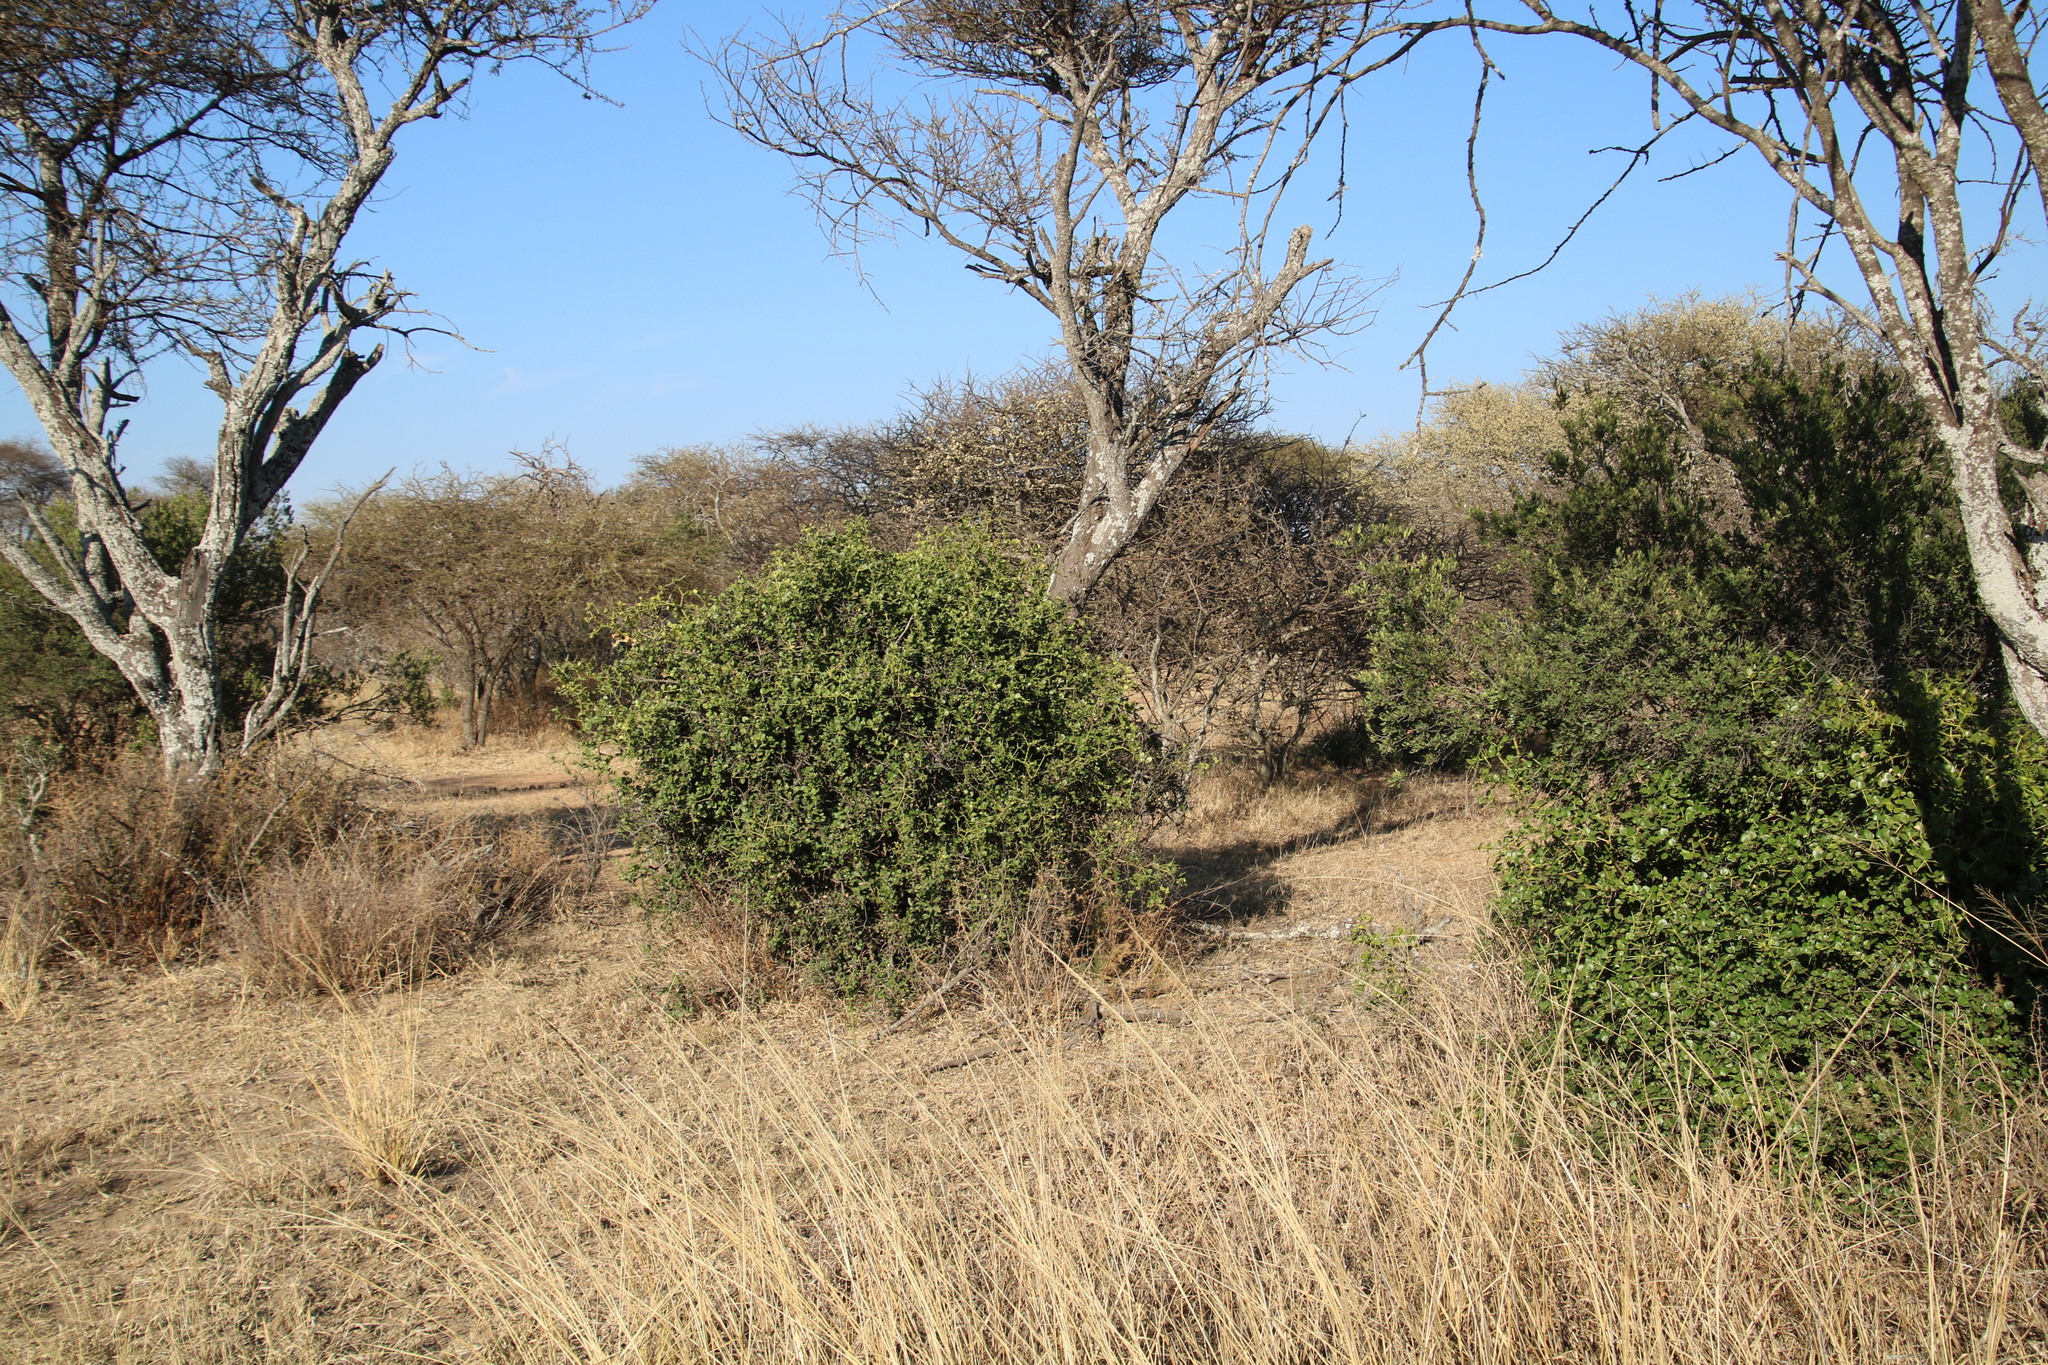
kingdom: Plantae
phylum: Tracheophyta
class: Magnoliopsida
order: Gentianales
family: Apocynaceae
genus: Carissa
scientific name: Carissa bispinosa
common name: Forest num-num
